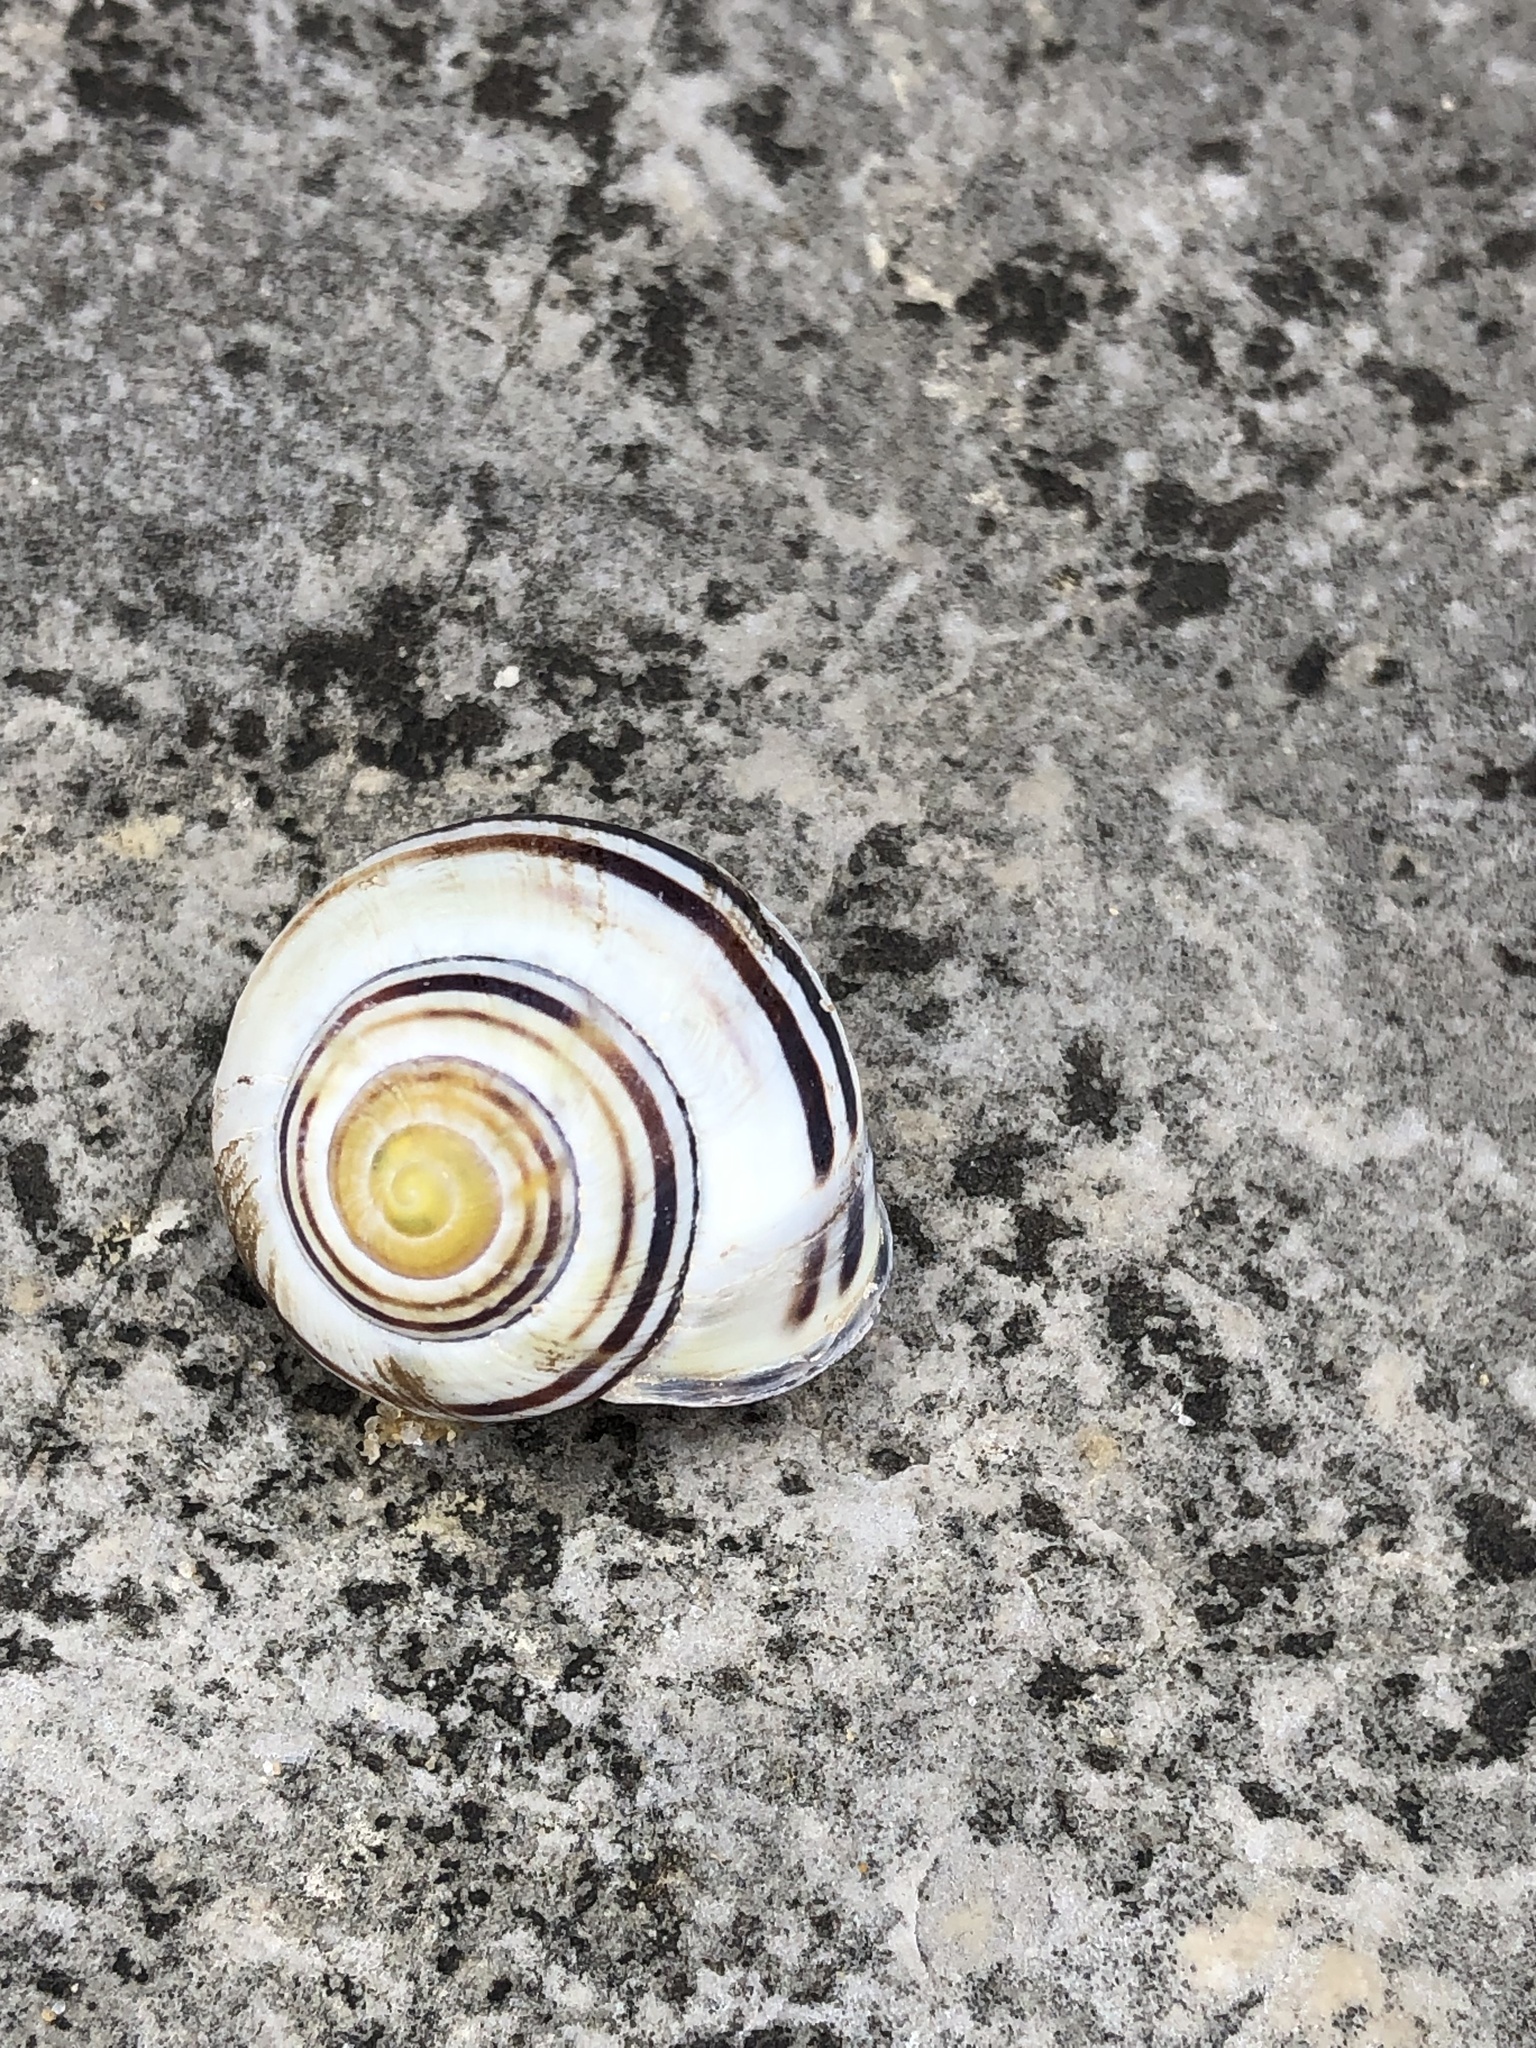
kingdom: Animalia
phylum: Mollusca
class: Gastropoda
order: Stylommatophora
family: Helicidae
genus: Cepaea
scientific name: Cepaea nemoralis
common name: Grovesnail
